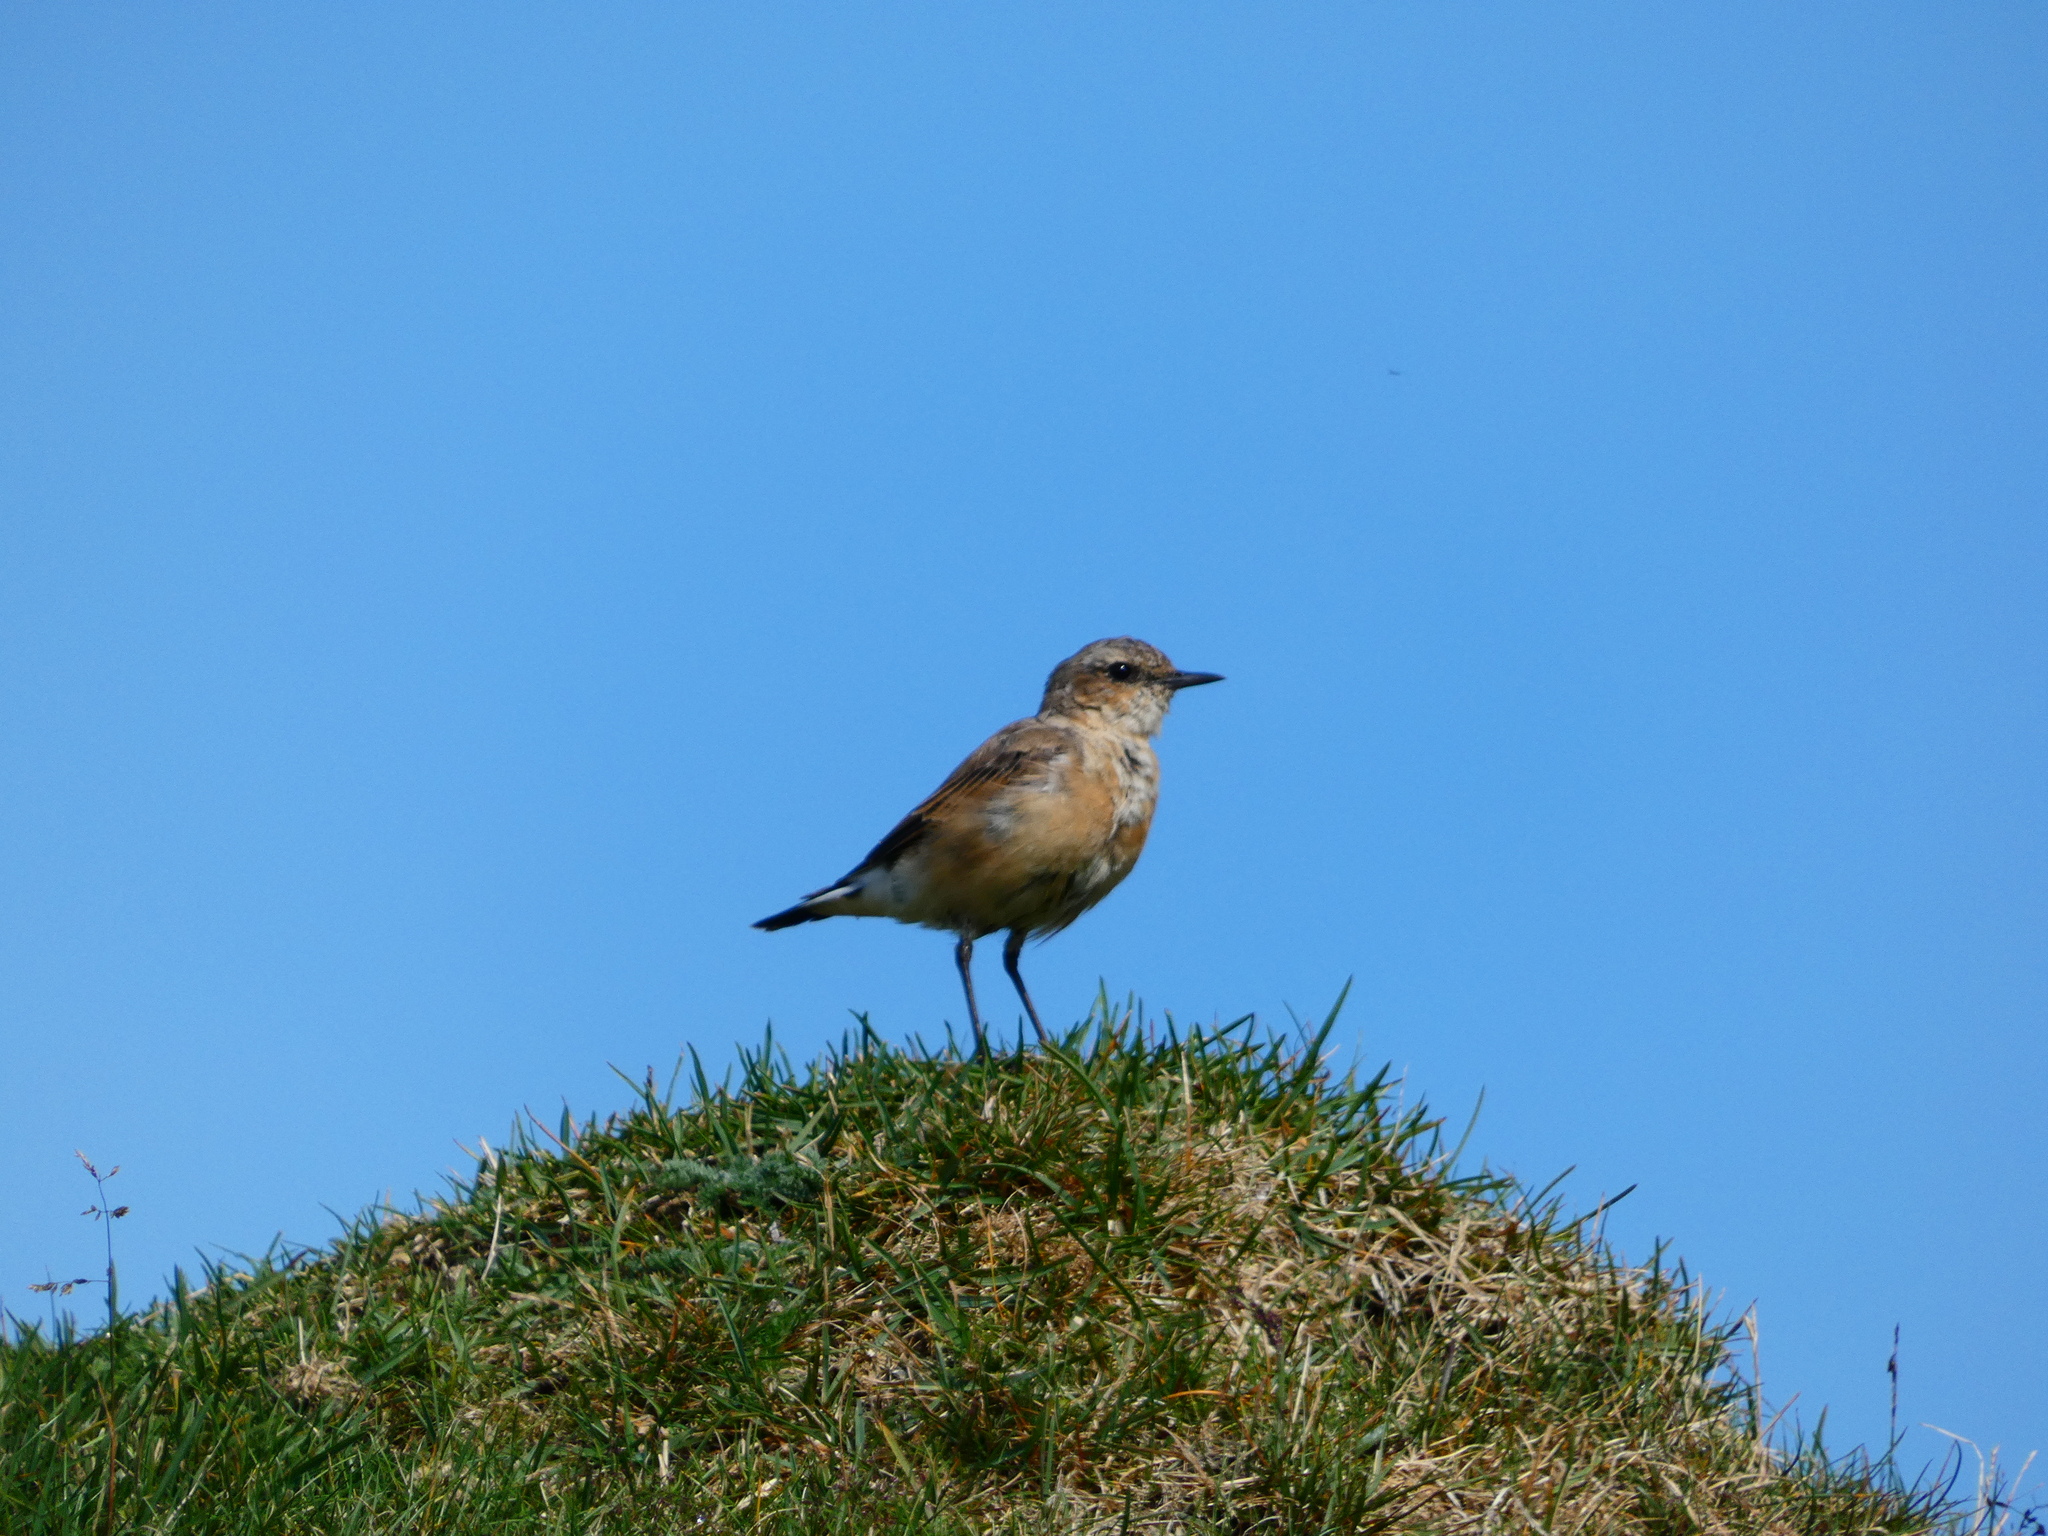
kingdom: Animalia
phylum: Chordata
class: Aves
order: Passeriformes
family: Muscicapidae
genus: Oenanthe
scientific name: Oenanthe oenanthe
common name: Northern wheatear
